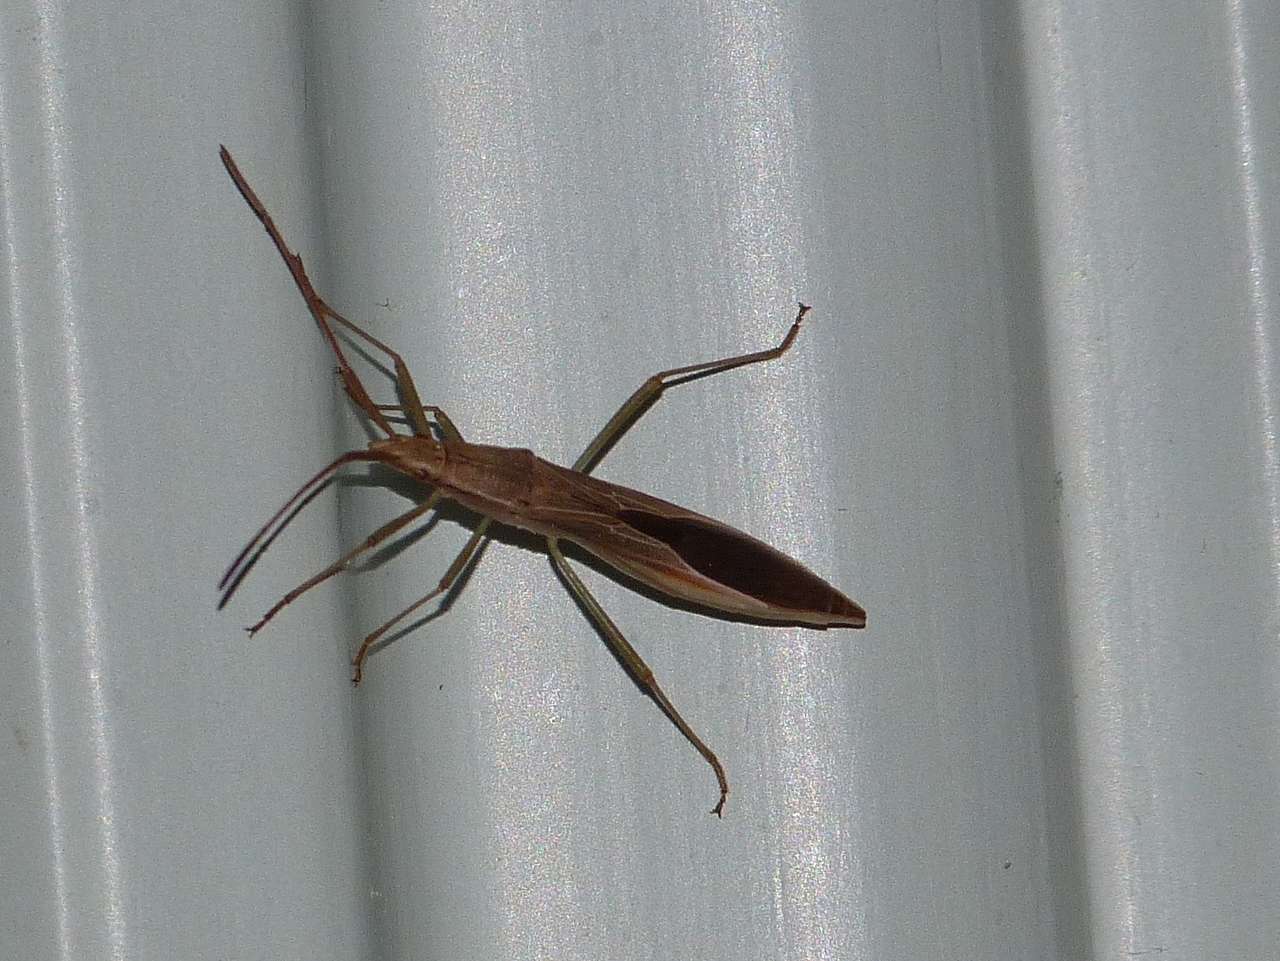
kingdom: Animalia
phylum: Arthropoda
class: Insecta
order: Hemiptera
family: Alydidae
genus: Mutusca
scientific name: Mutusca brevicornis
